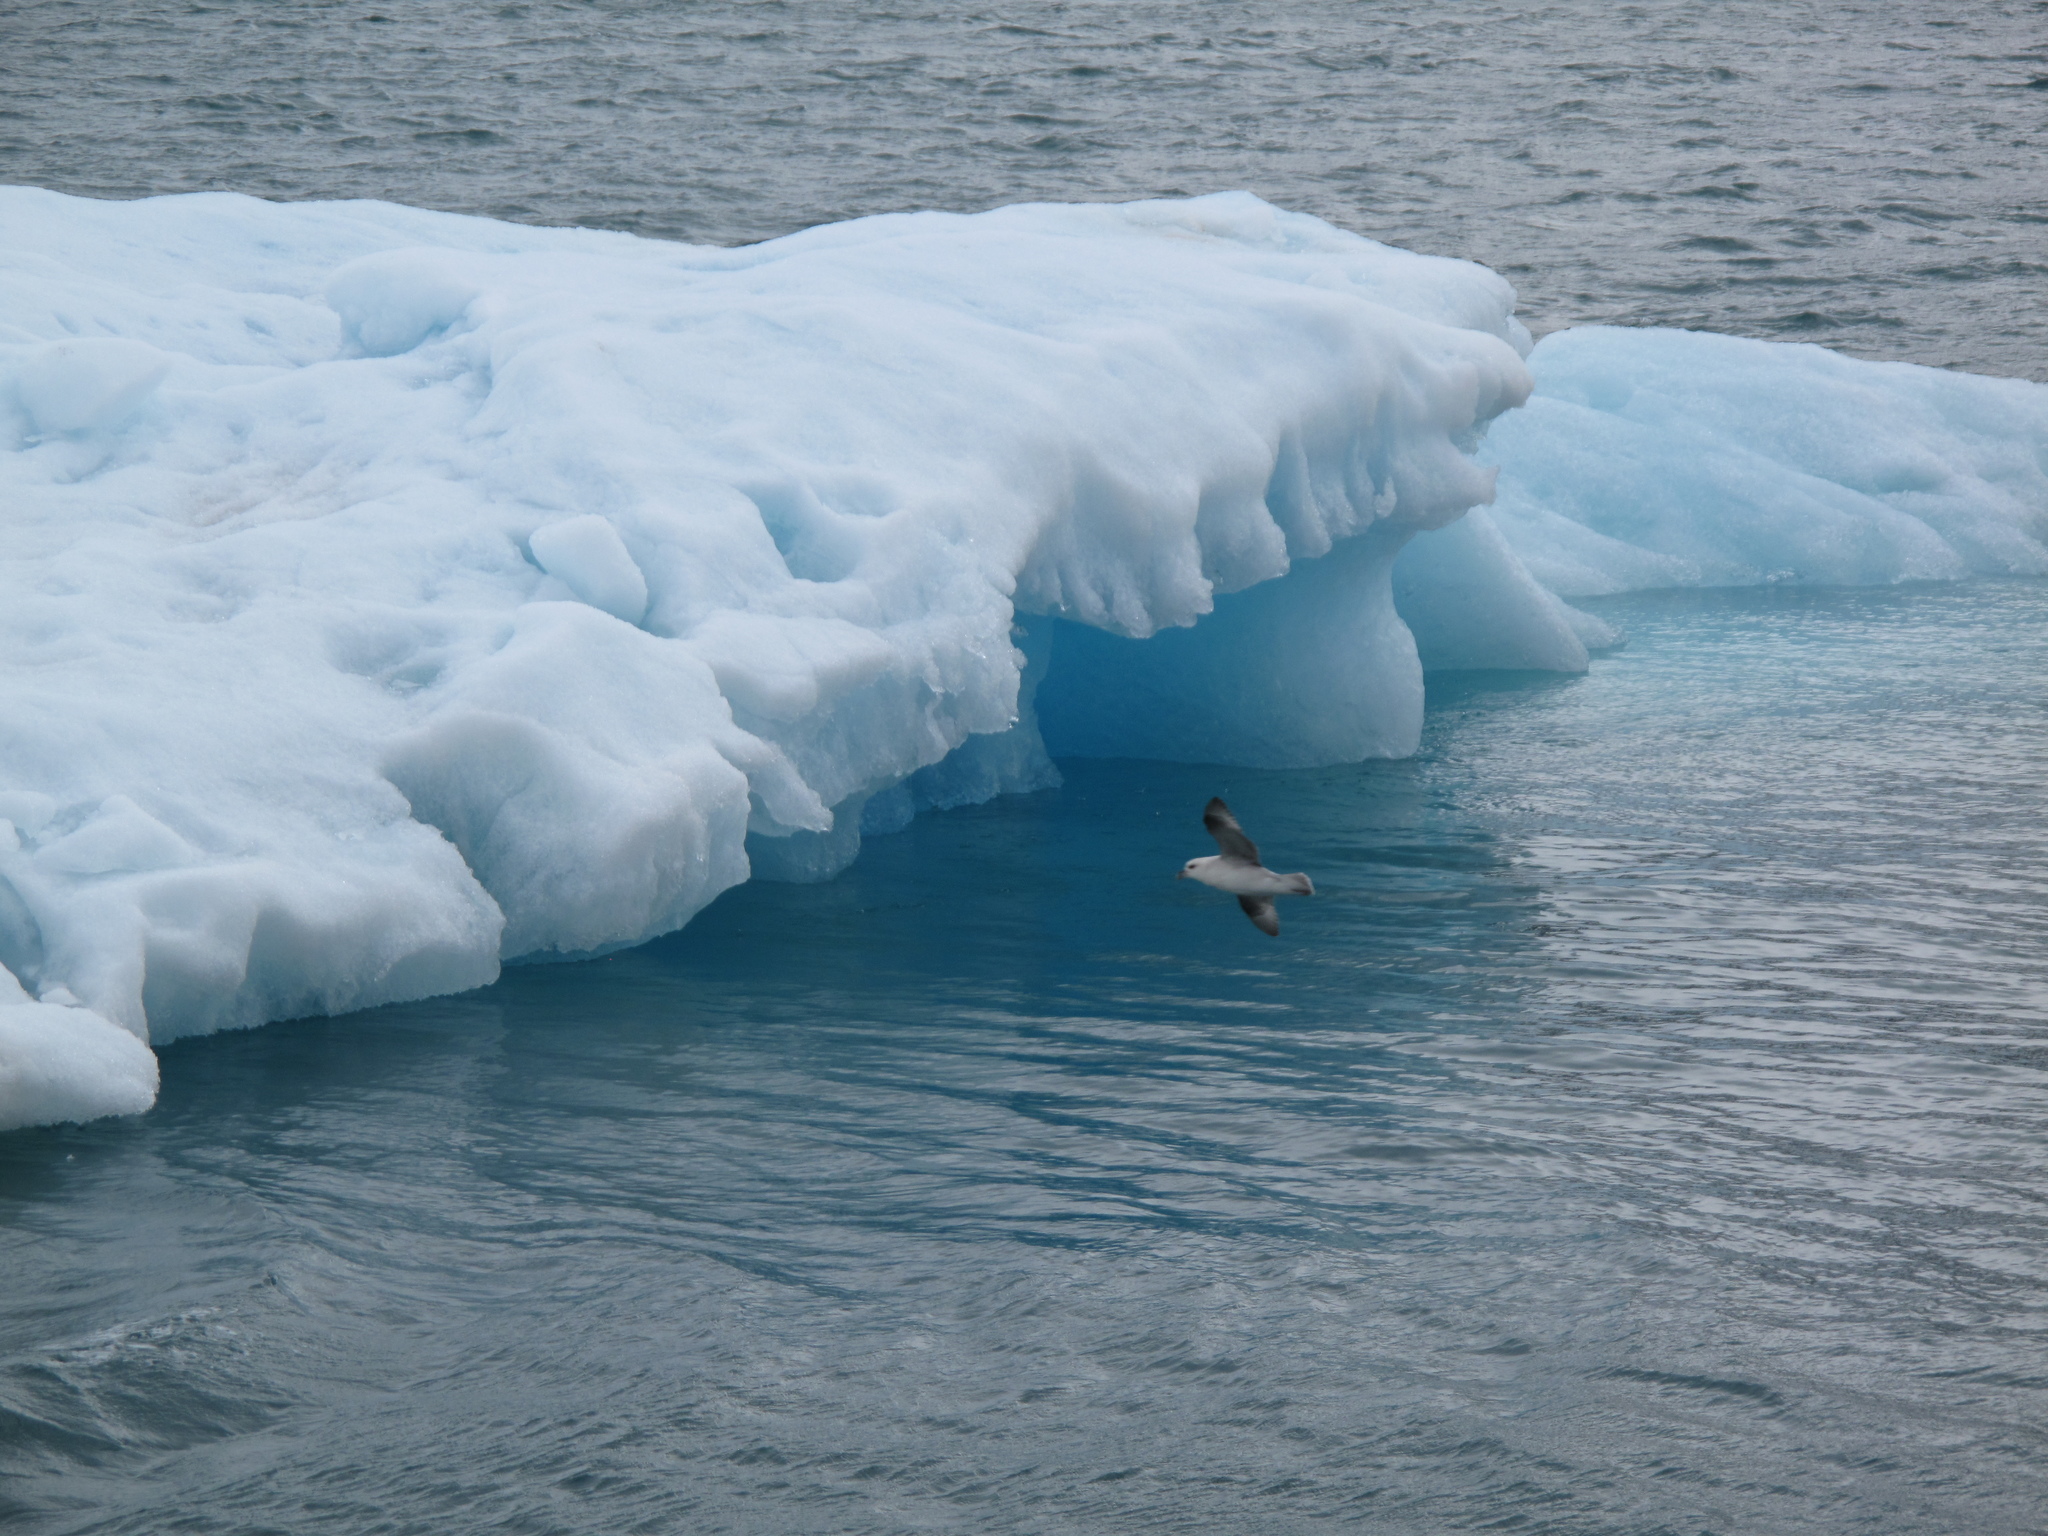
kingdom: Animalia
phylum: Chordata
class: Aves
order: Procellariiformes
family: Procellariidae
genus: Fulmarus
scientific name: Fulmarus glacialis
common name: Northern fulmar
